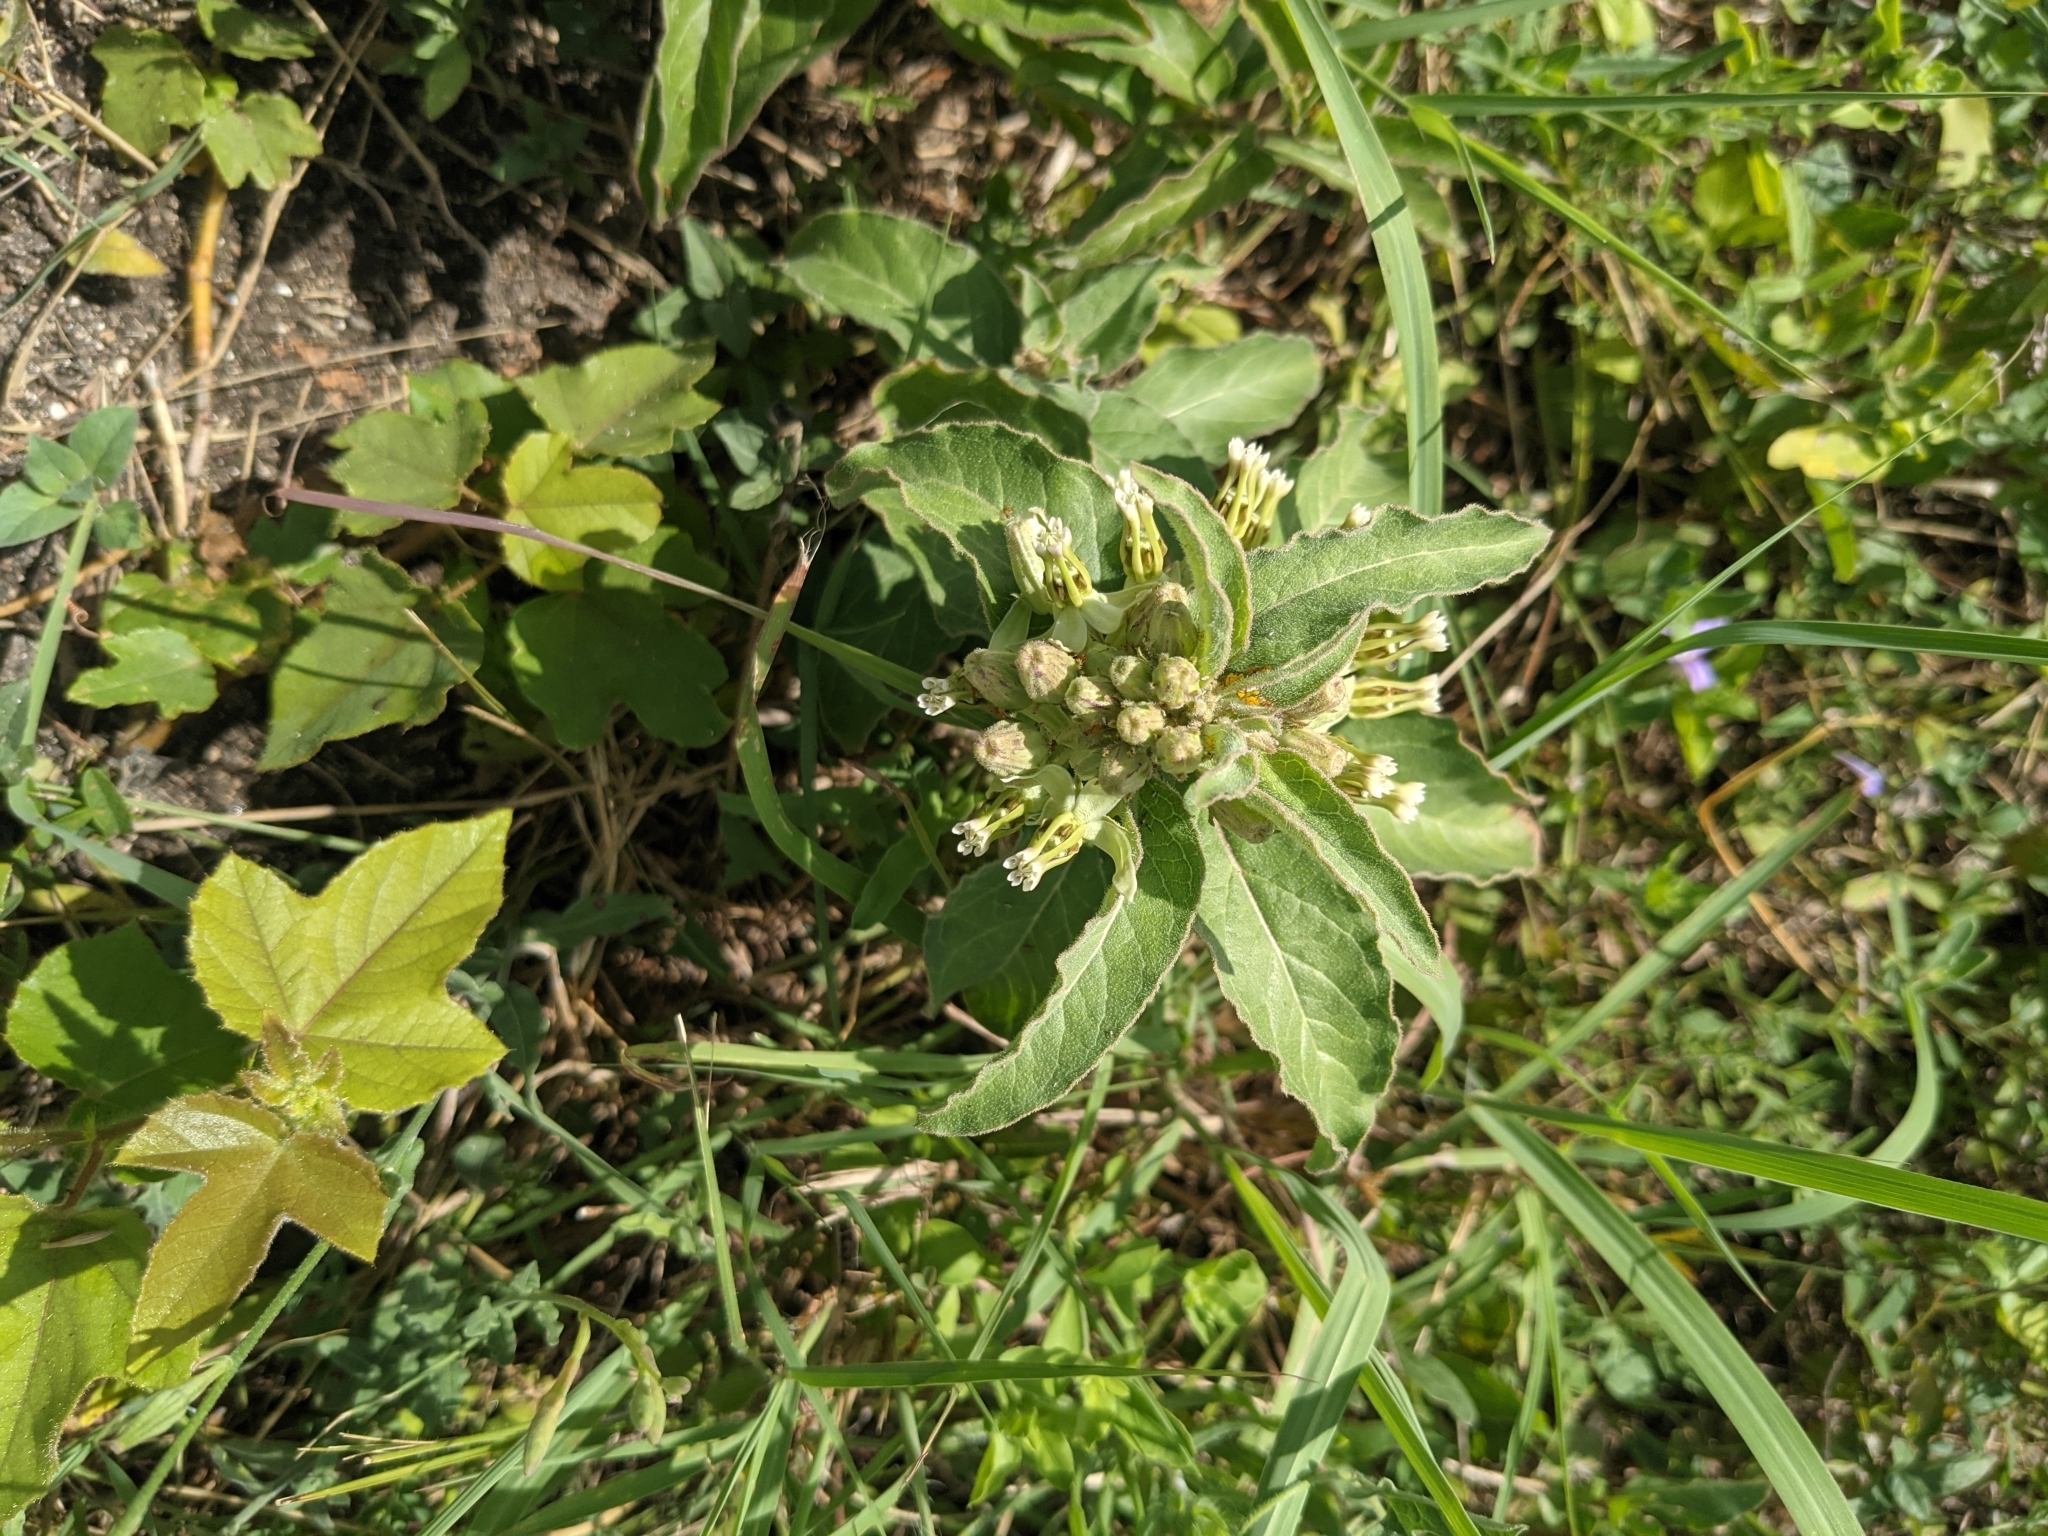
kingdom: Plantae
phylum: Tracheophyta
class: Magnoliopsida
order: Gentianales
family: Apocynaceae
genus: Asclepias
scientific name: Asclepias oenotheroides
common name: Zizotes milkweed
